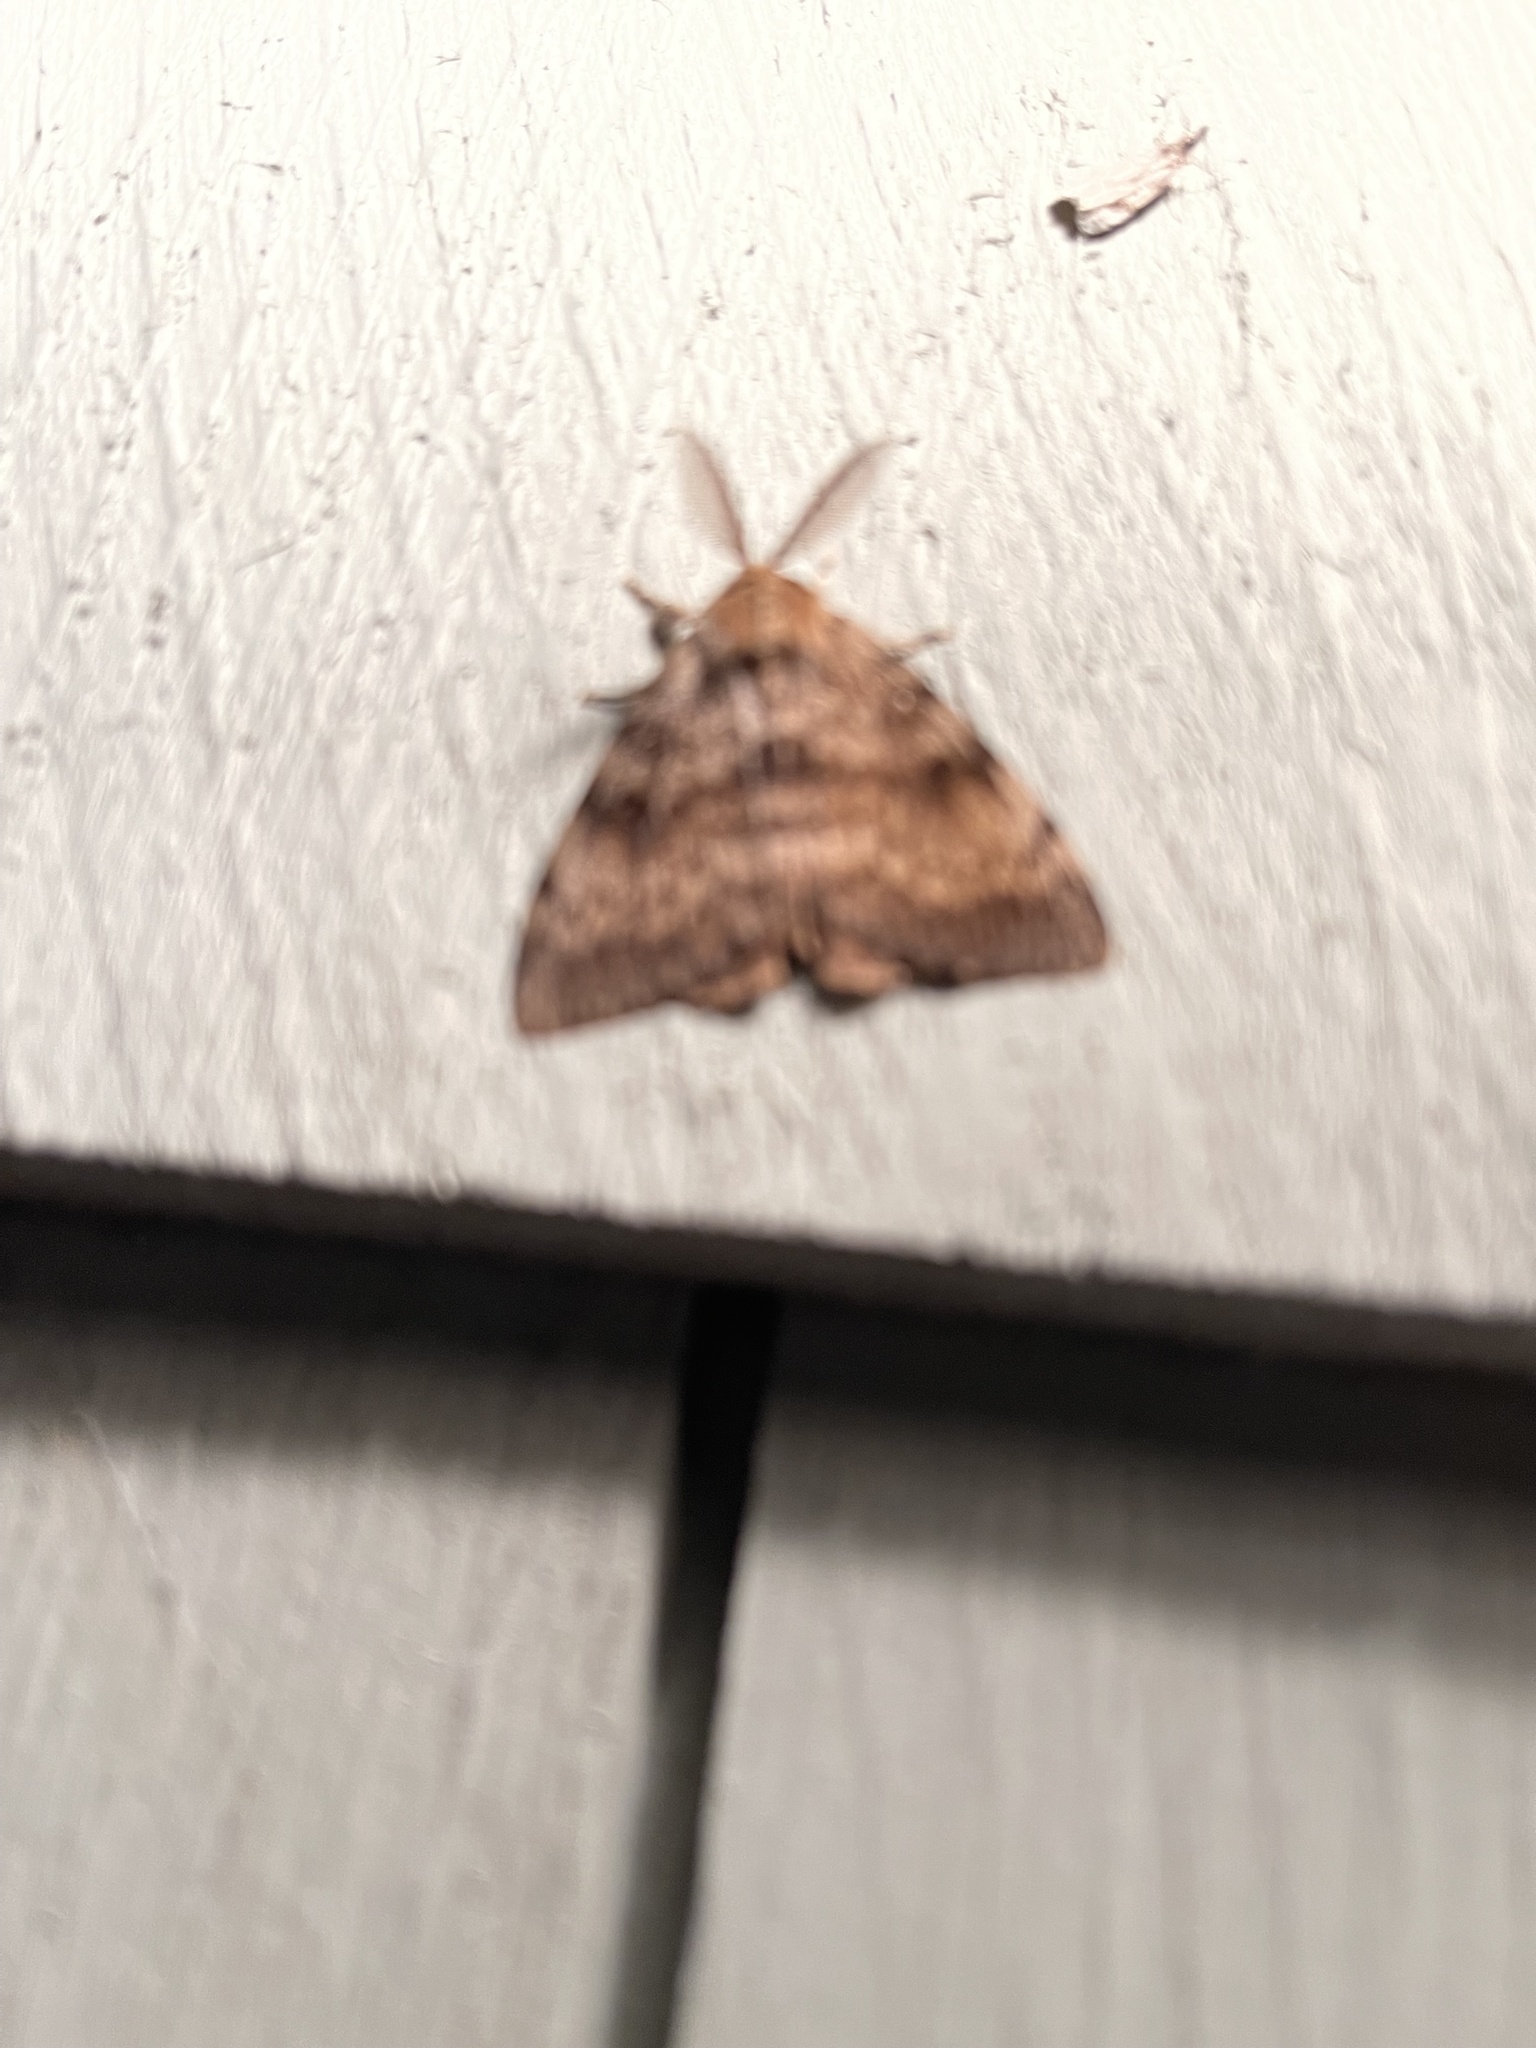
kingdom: Animalia
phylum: Arthropoda
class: Insecta
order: Lepidoptera
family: Erebidae
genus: Lymantria
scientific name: Lymantria dispar
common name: Gypsy moth
